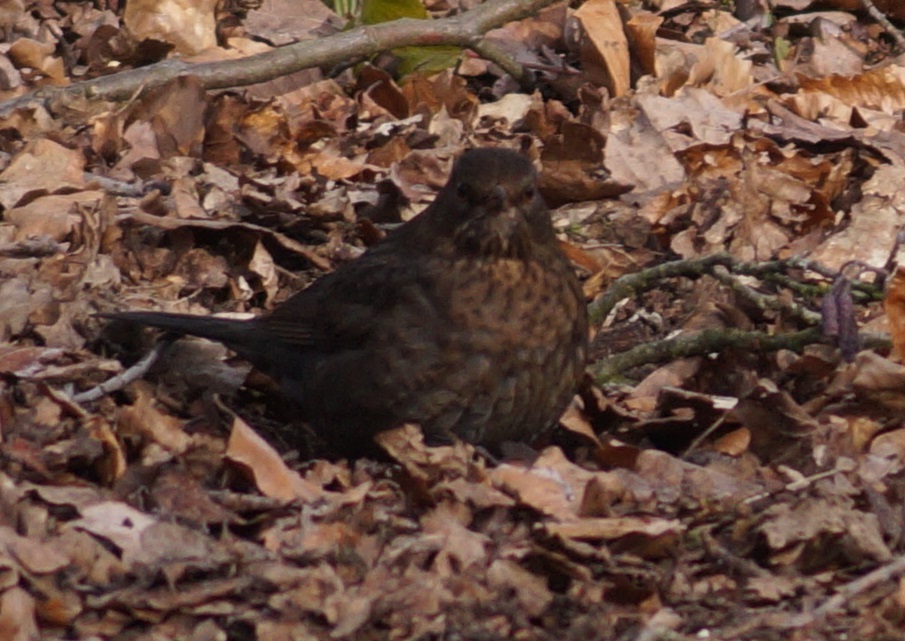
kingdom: Animalia
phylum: Chordata
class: Aves
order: Passeriformes
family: Turdidae
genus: Turdus
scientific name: Turdus merula
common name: Common blackbird
